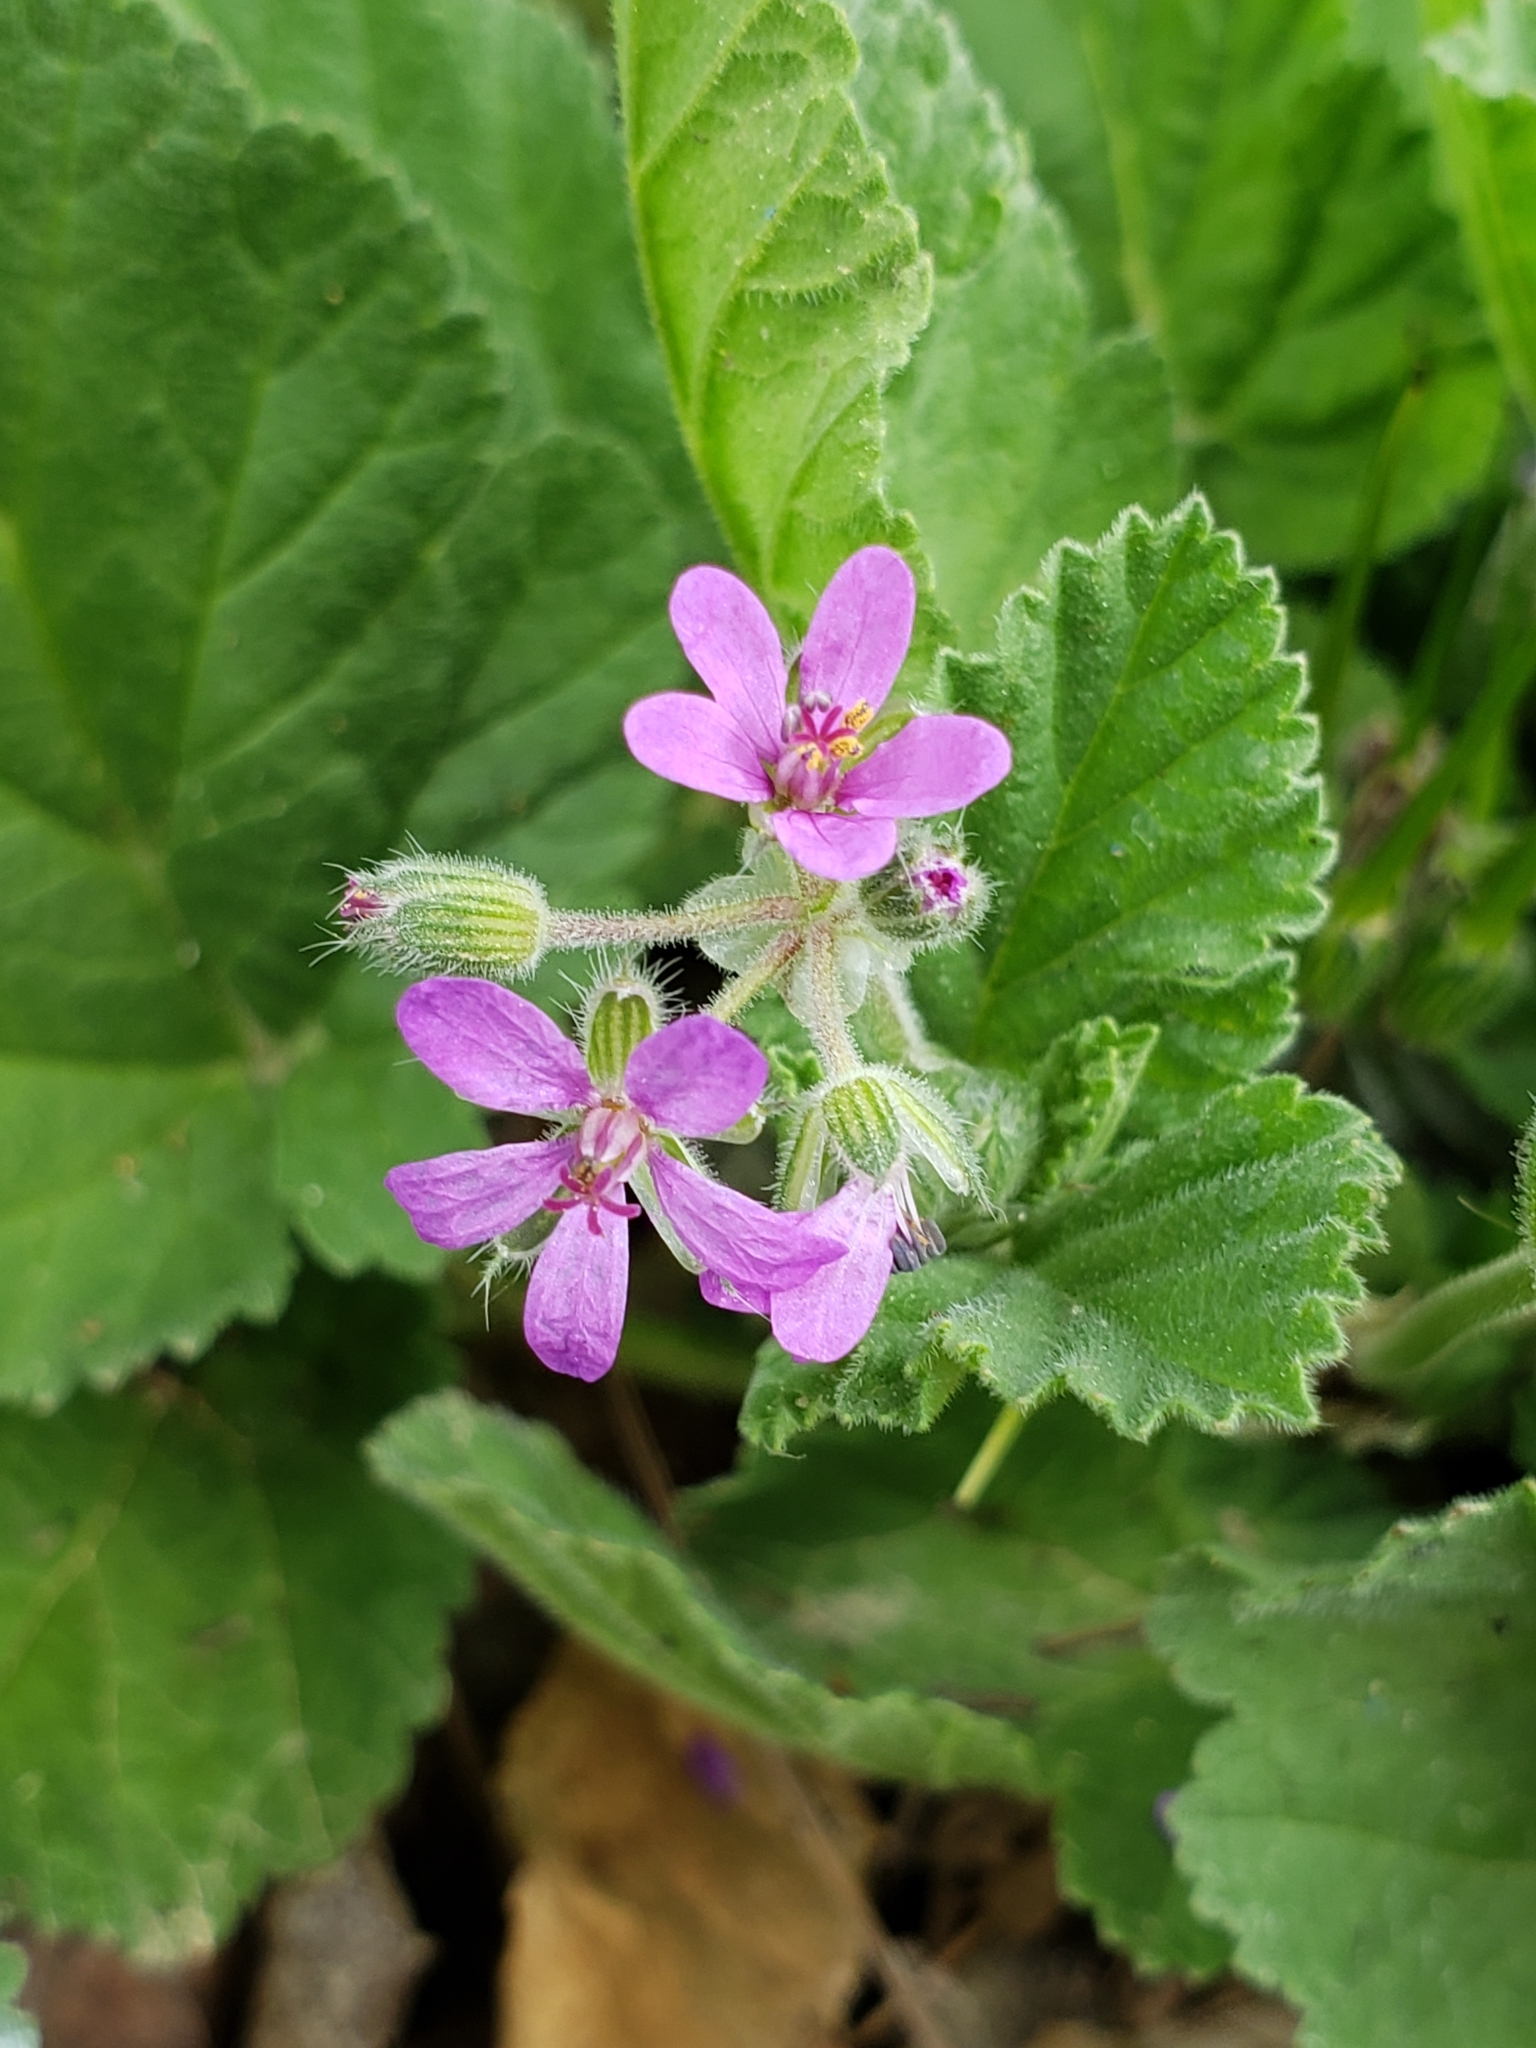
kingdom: Plantae
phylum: Tracheophyta
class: Magnoliopsida
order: Geraniales
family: Geraniaceae
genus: Erodium
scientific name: Erodium malacoides
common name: Soft stork's-bill
